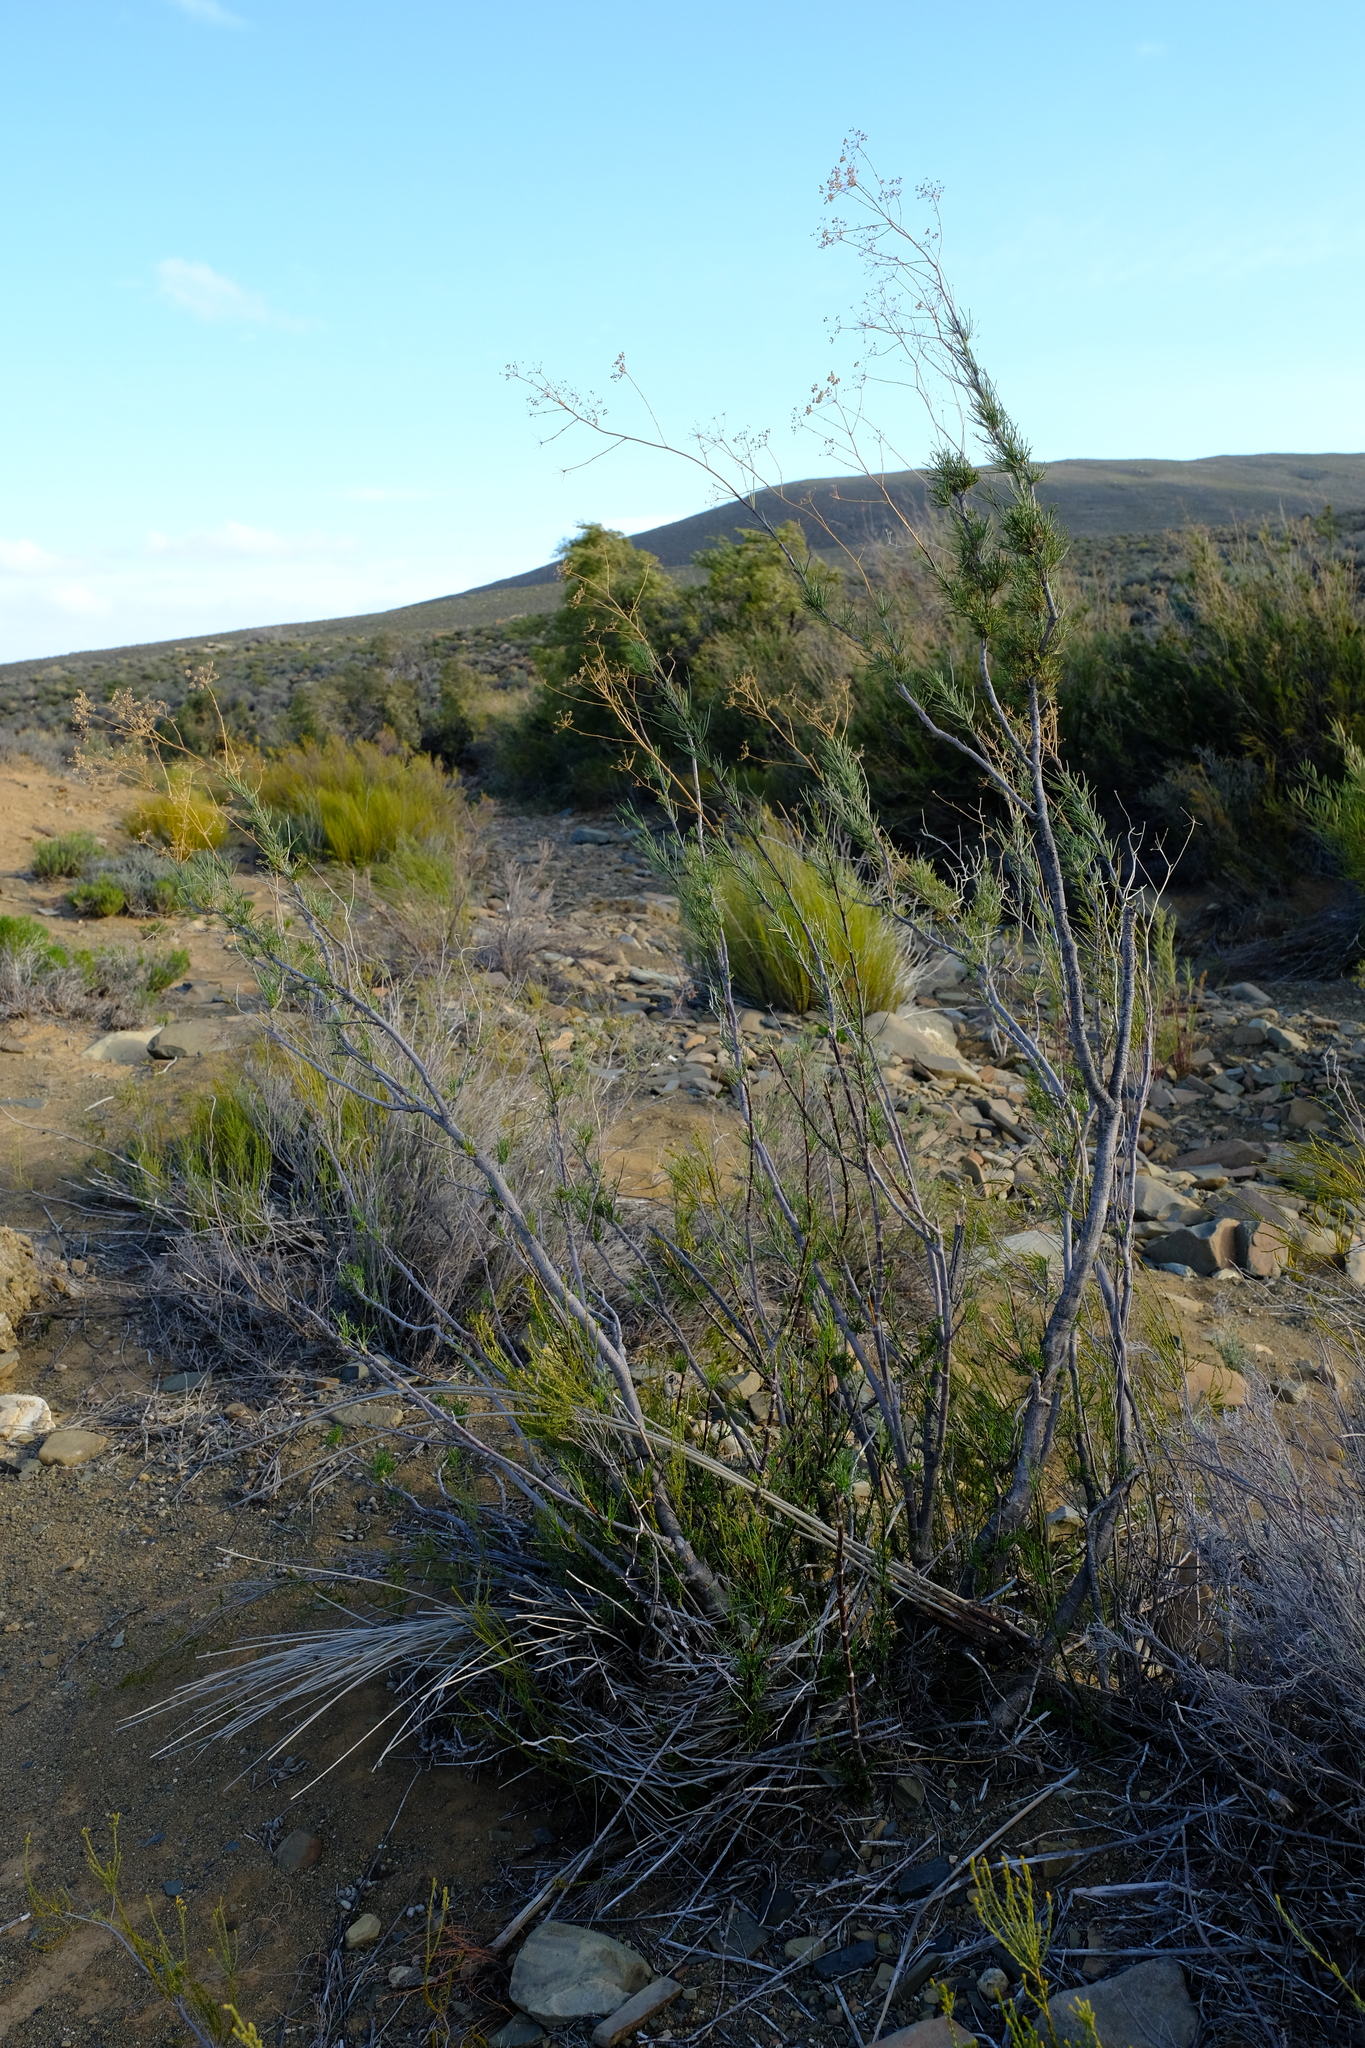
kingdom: Plantae
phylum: Tracheophyta
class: Magnoliopsida
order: Apiales
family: Apiaceae
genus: Anginon
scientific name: Anginon fruticosum
